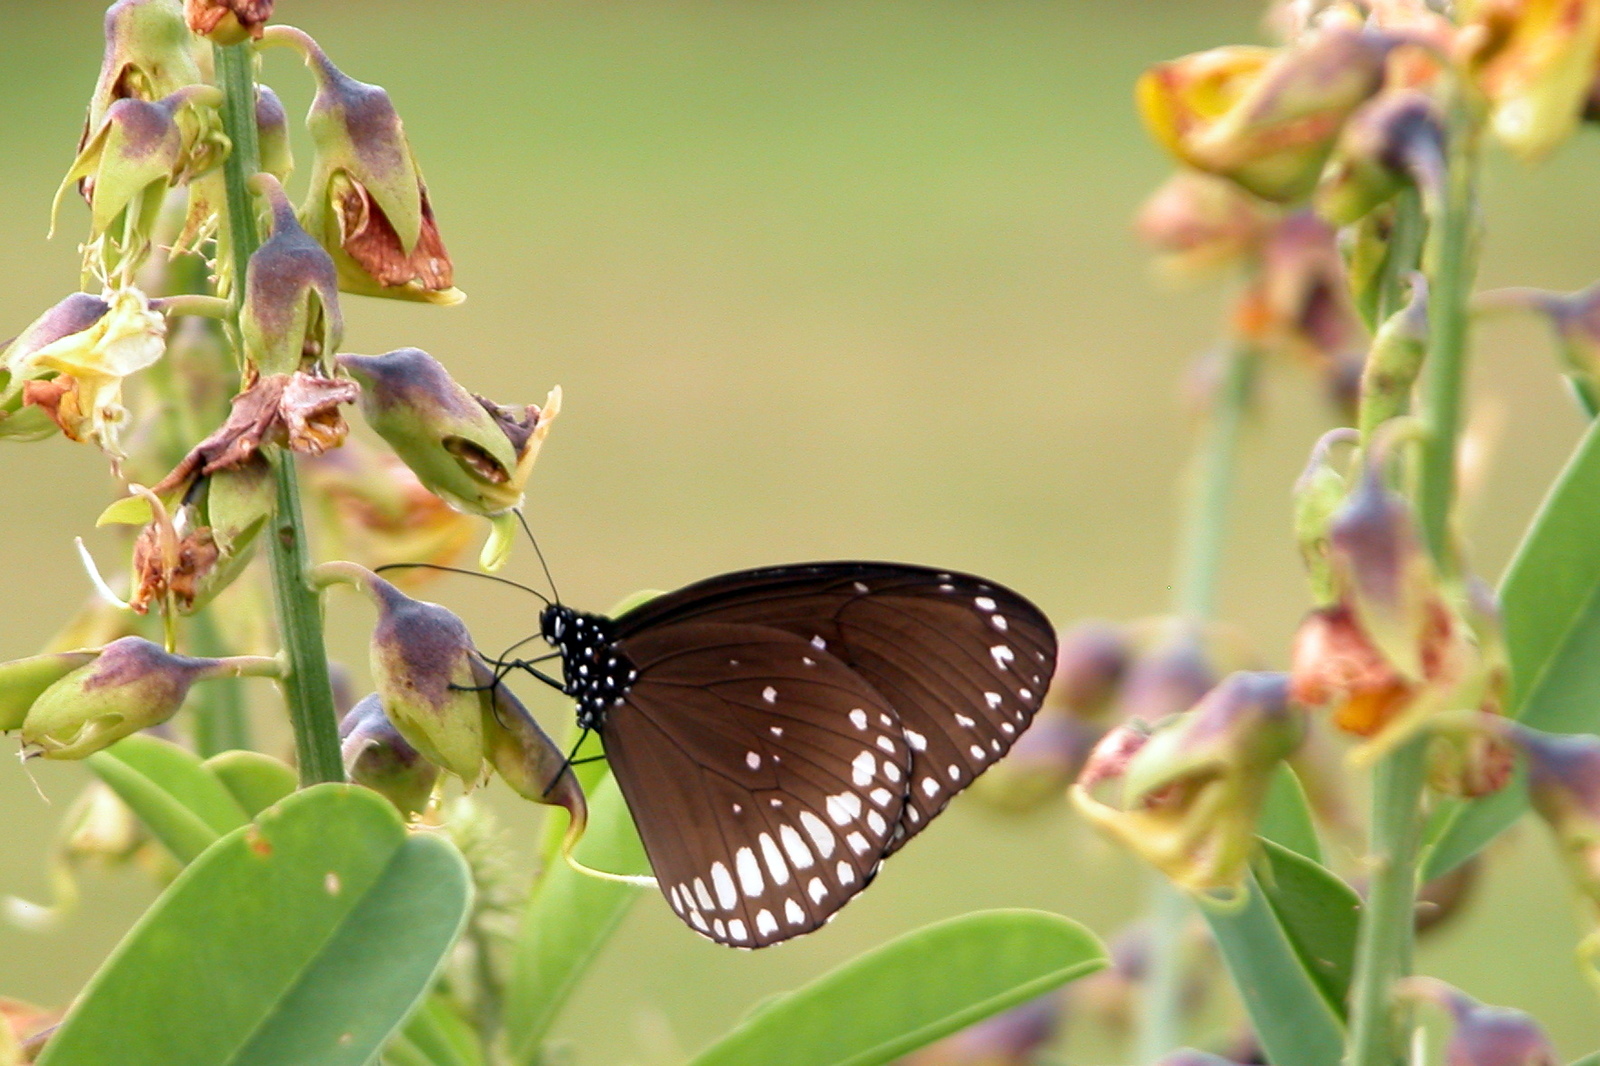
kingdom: Animalia
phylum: Arthropoda
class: Insecta
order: Lepidoptera
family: Nymphalidae
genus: Euploea
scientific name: Euploea core
